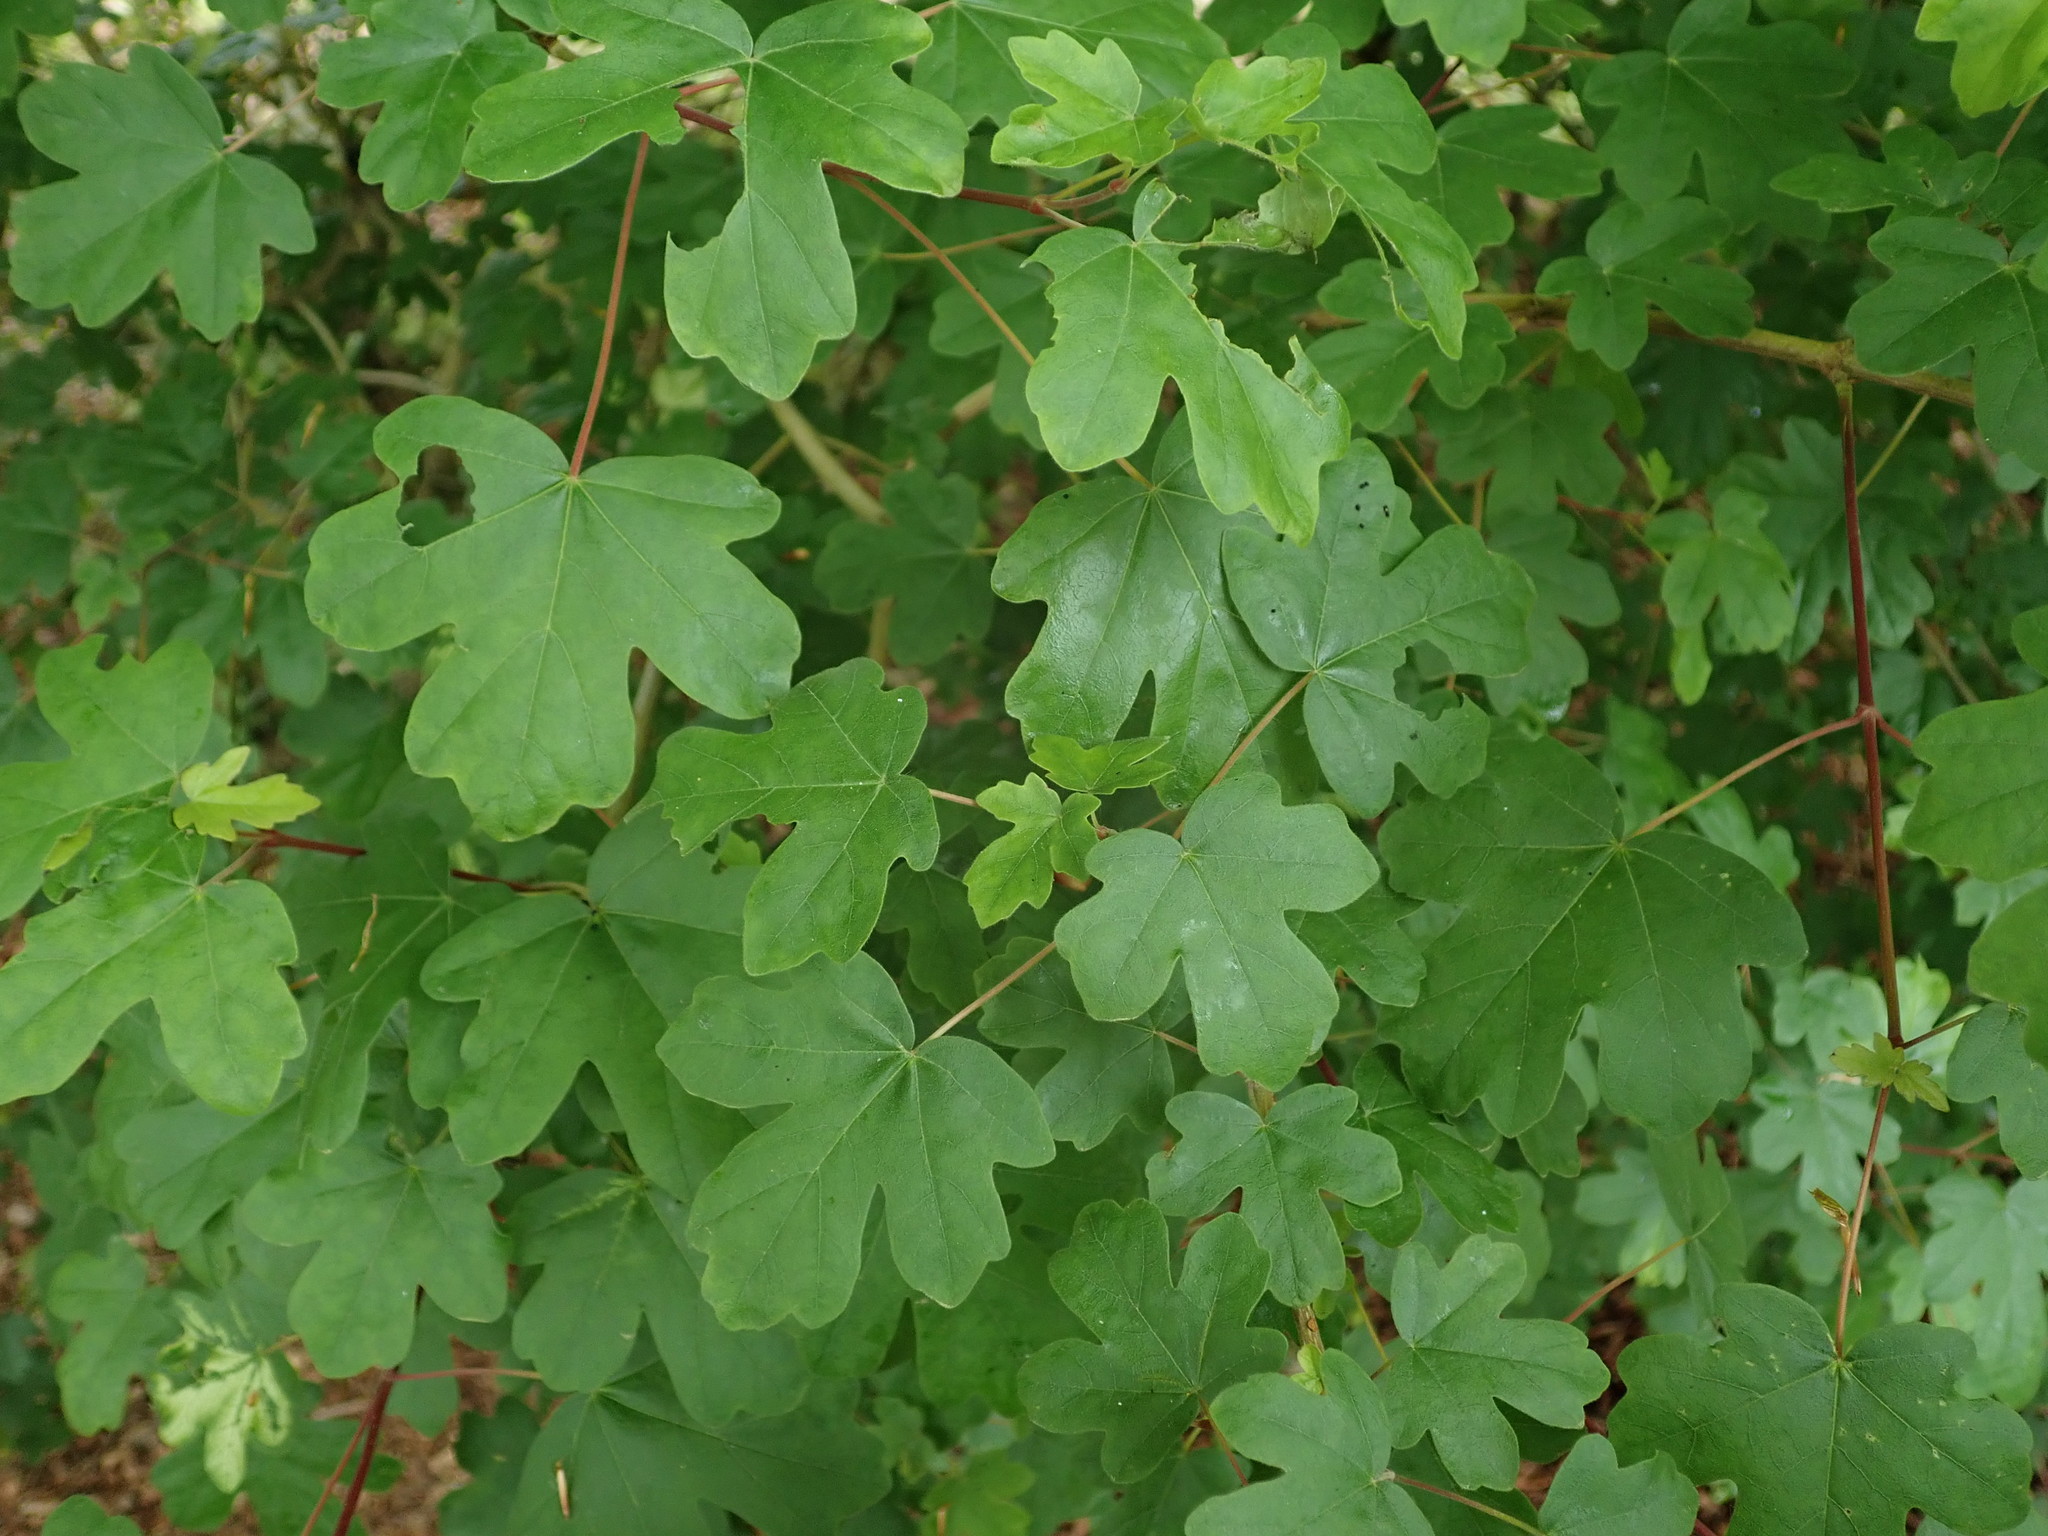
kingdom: Plantae
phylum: Tracheophyta
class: Magnoliopsida
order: Sapindales
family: Sapindaceae
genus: Acer
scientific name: Acer campestre
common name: Field maple
